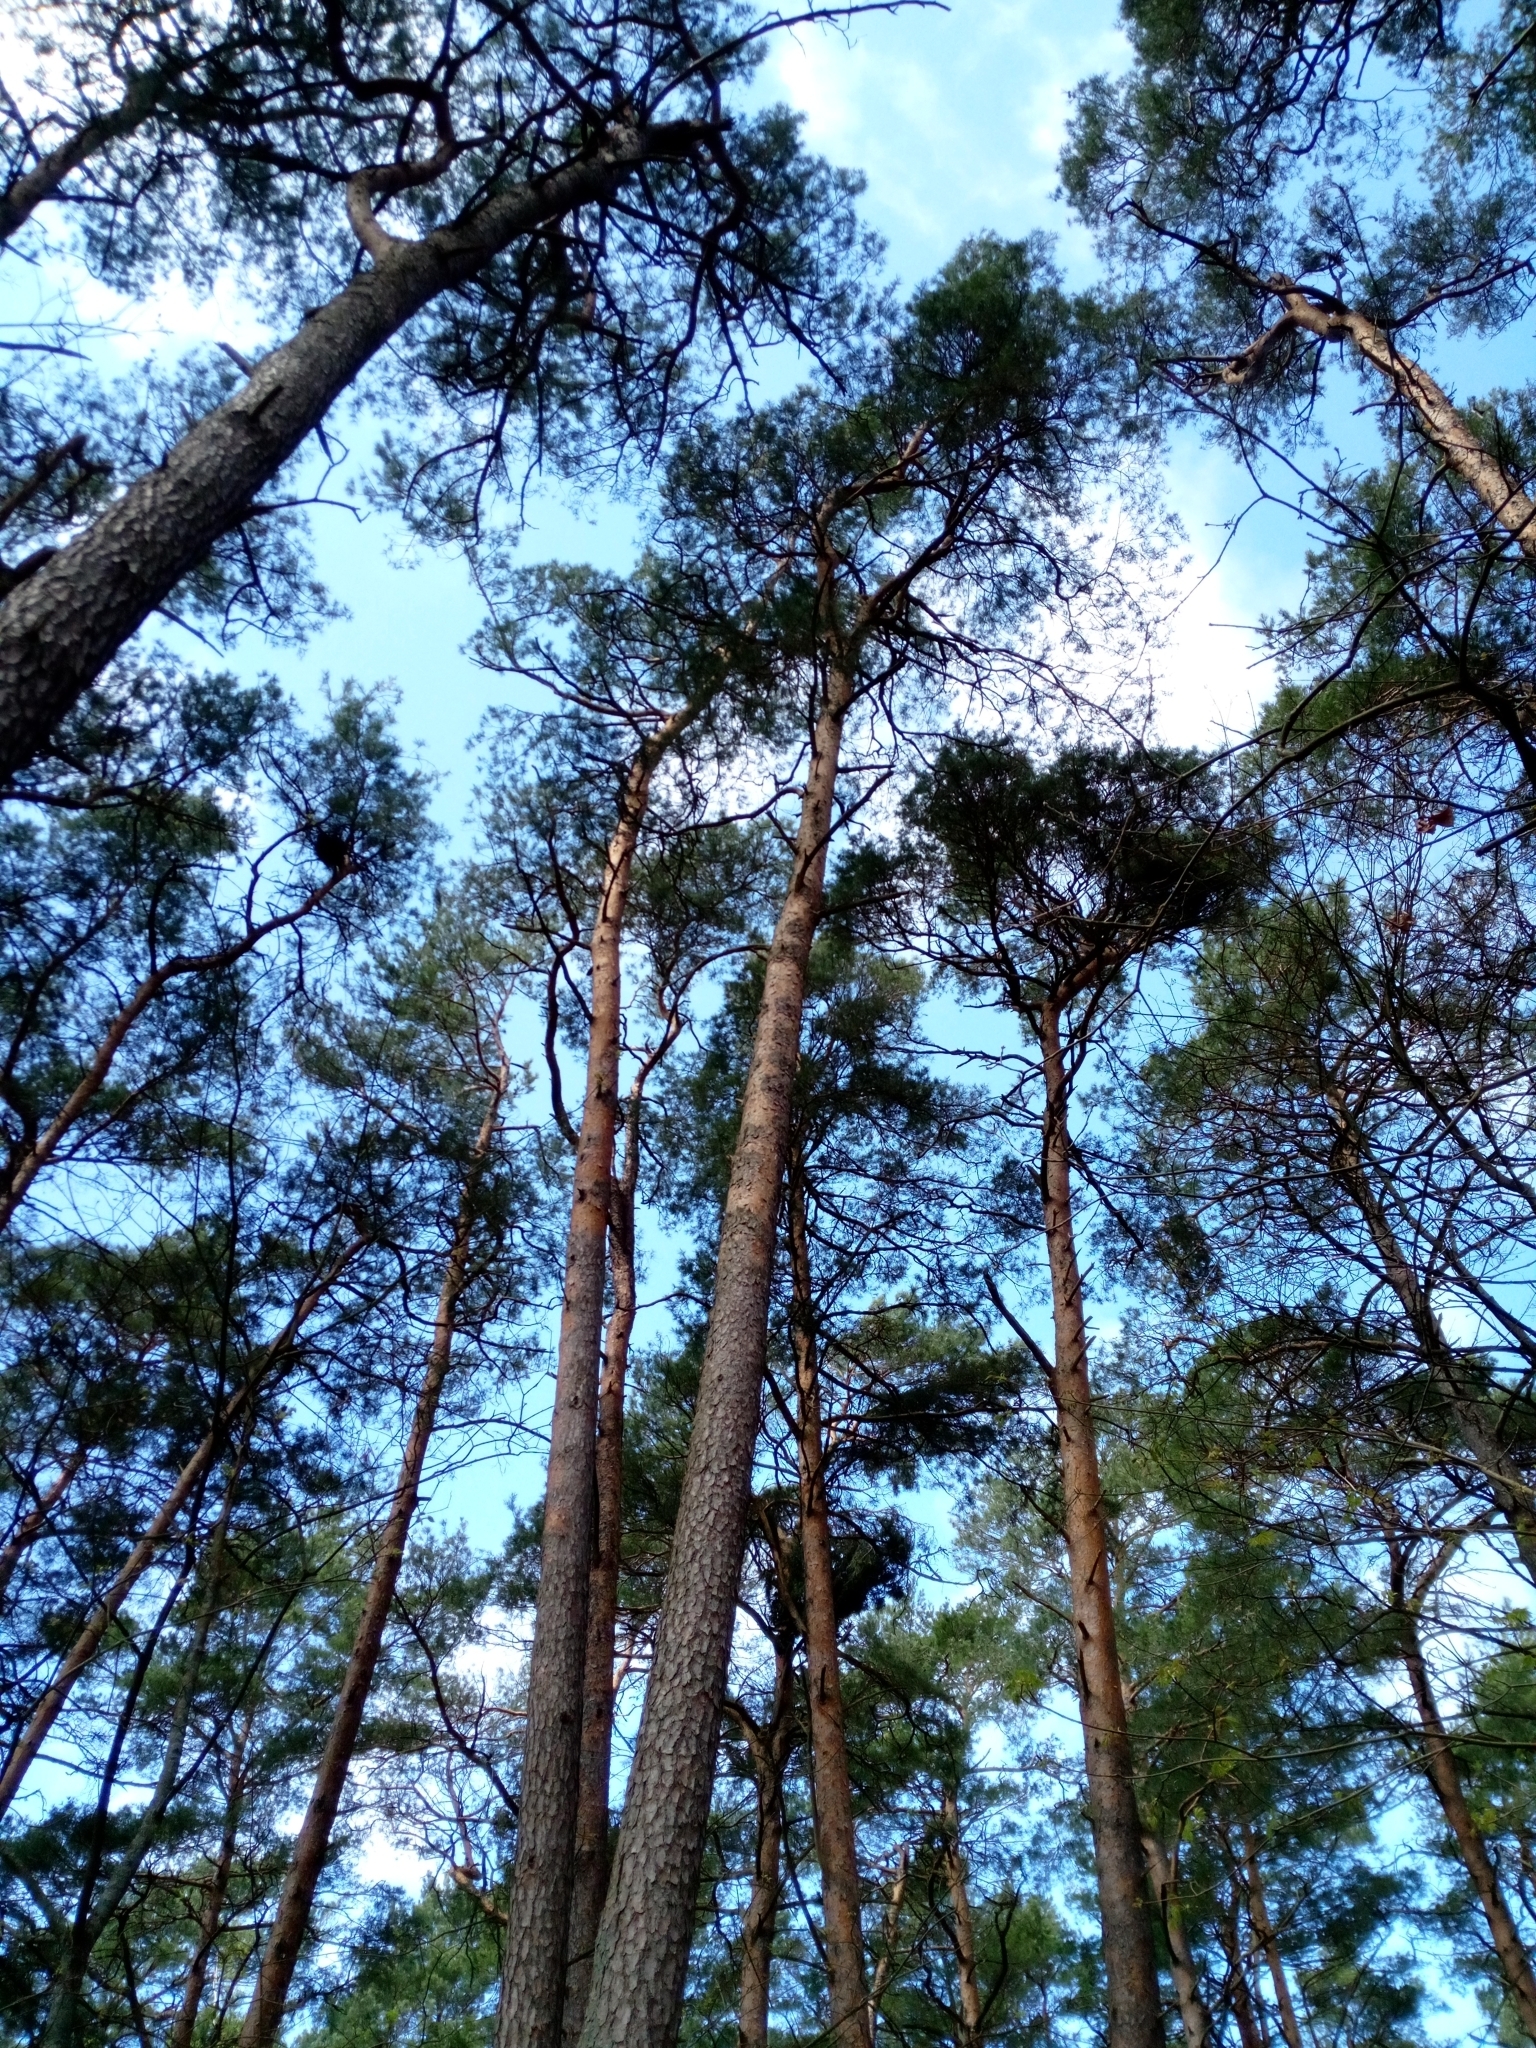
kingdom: Plantae
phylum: Tracheophyta
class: Pinopsida
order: Pinales
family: Pinaceae
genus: Pinus
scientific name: Pinus sylvestris
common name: Scots pine
